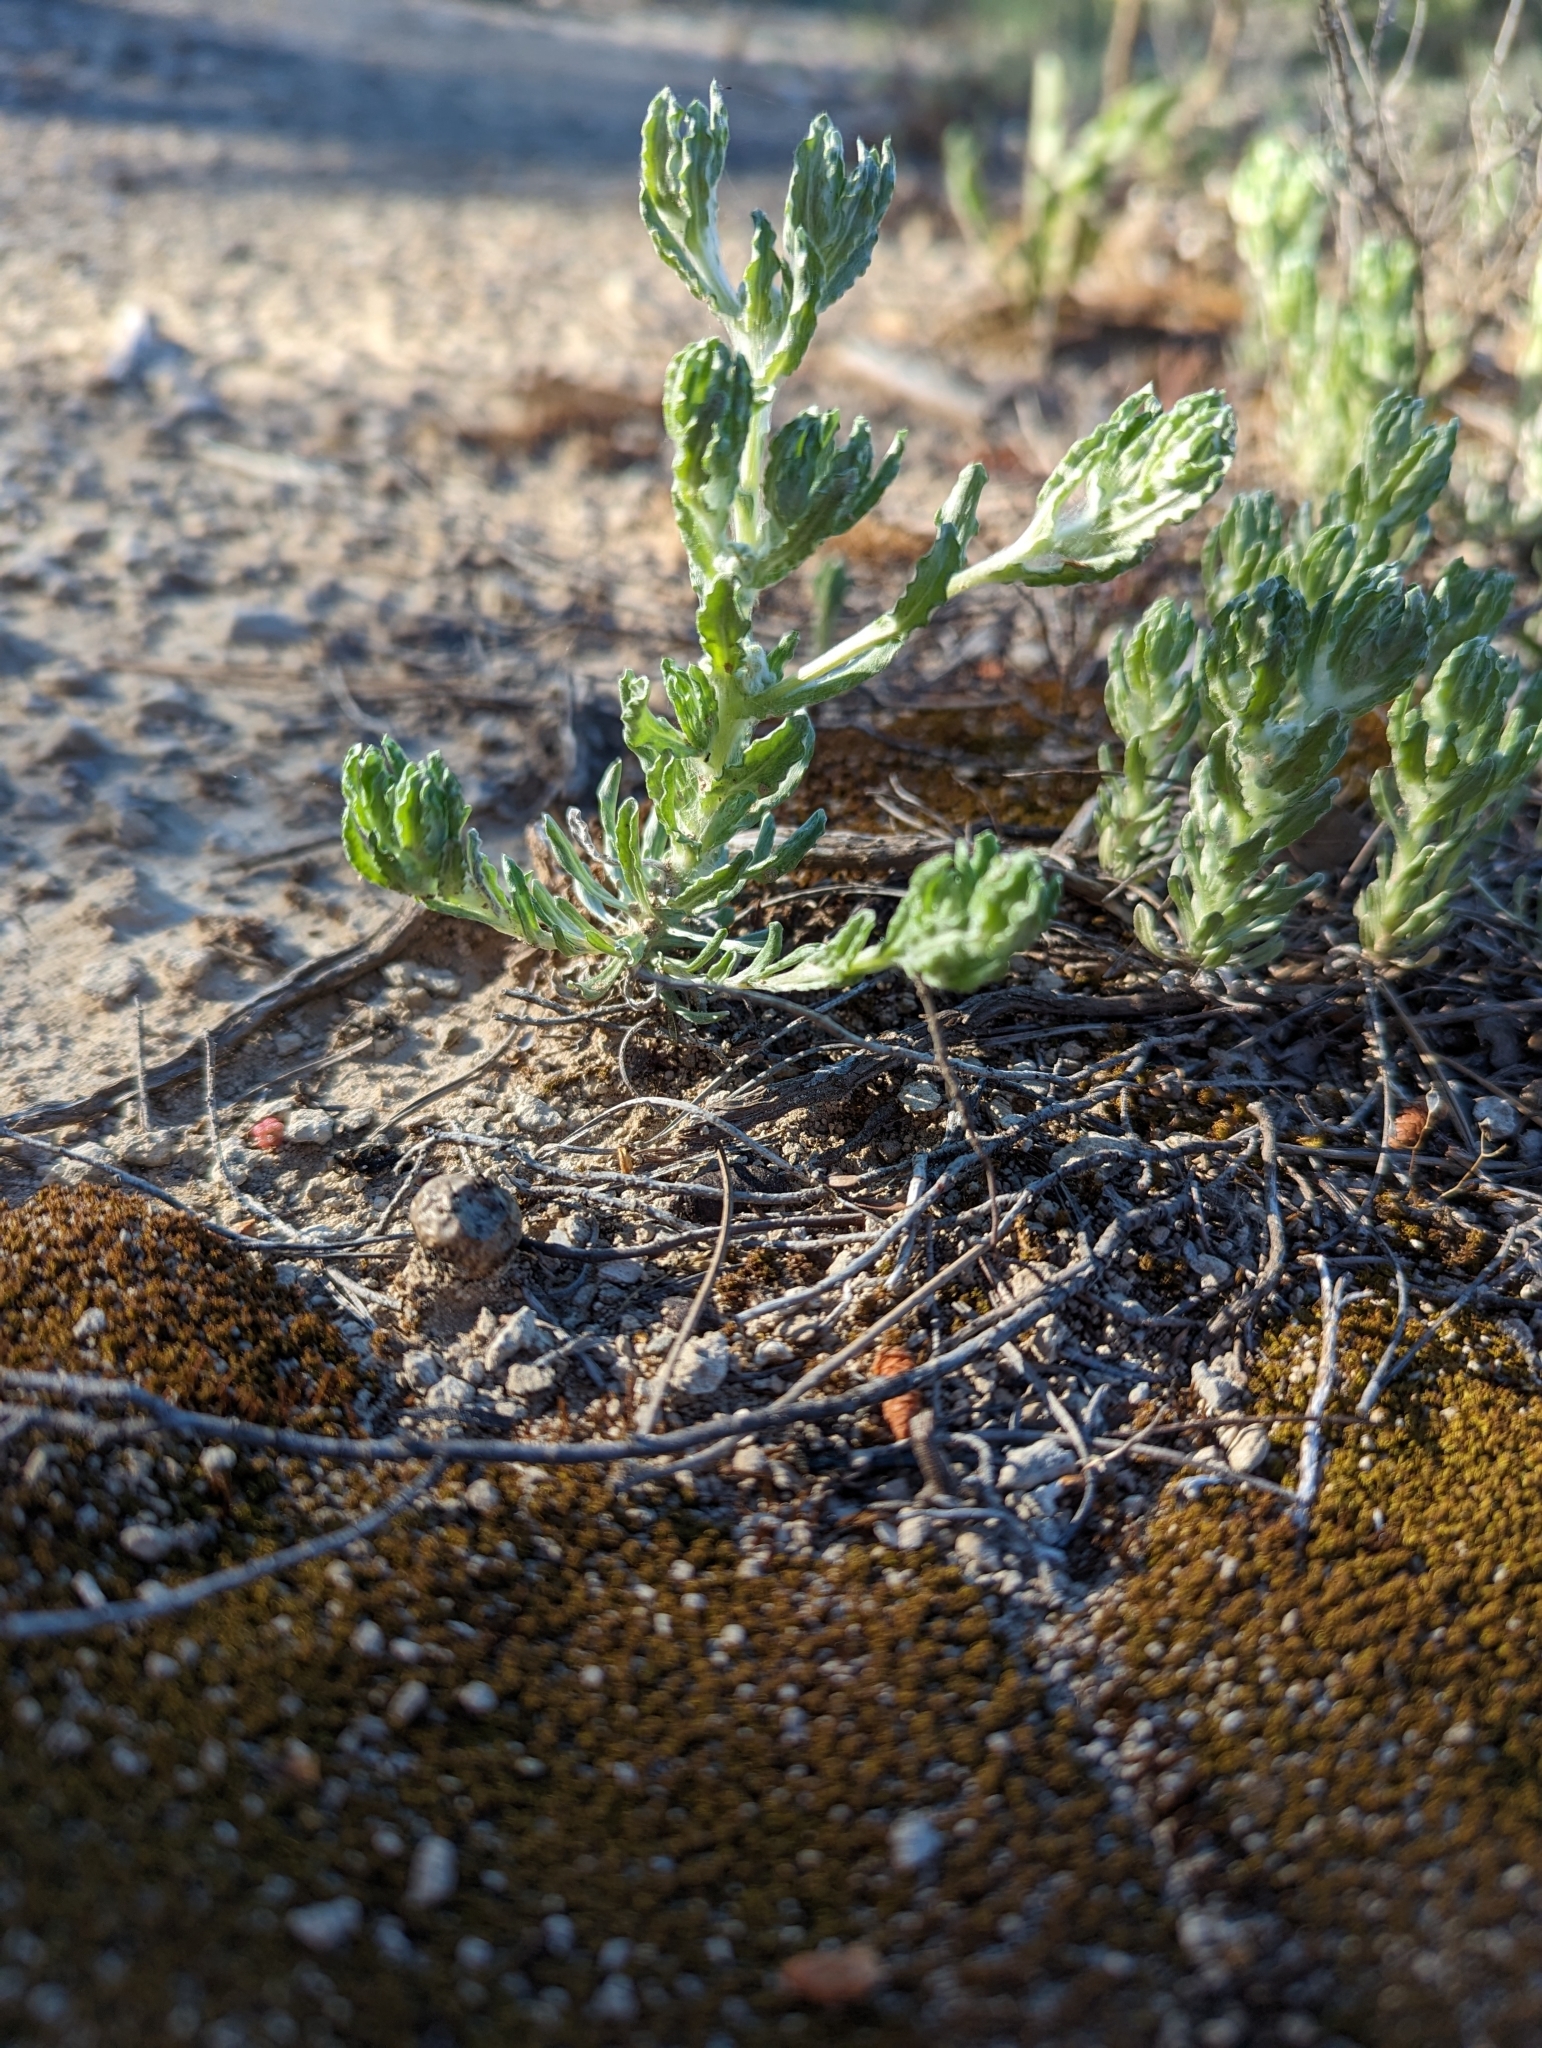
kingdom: Plantae
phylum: Tracheophyta
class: Magnoliopsida
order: Asterales
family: Asteraceae
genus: Bombycilaena
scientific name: Bombycilaena erecta
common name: Micropus
